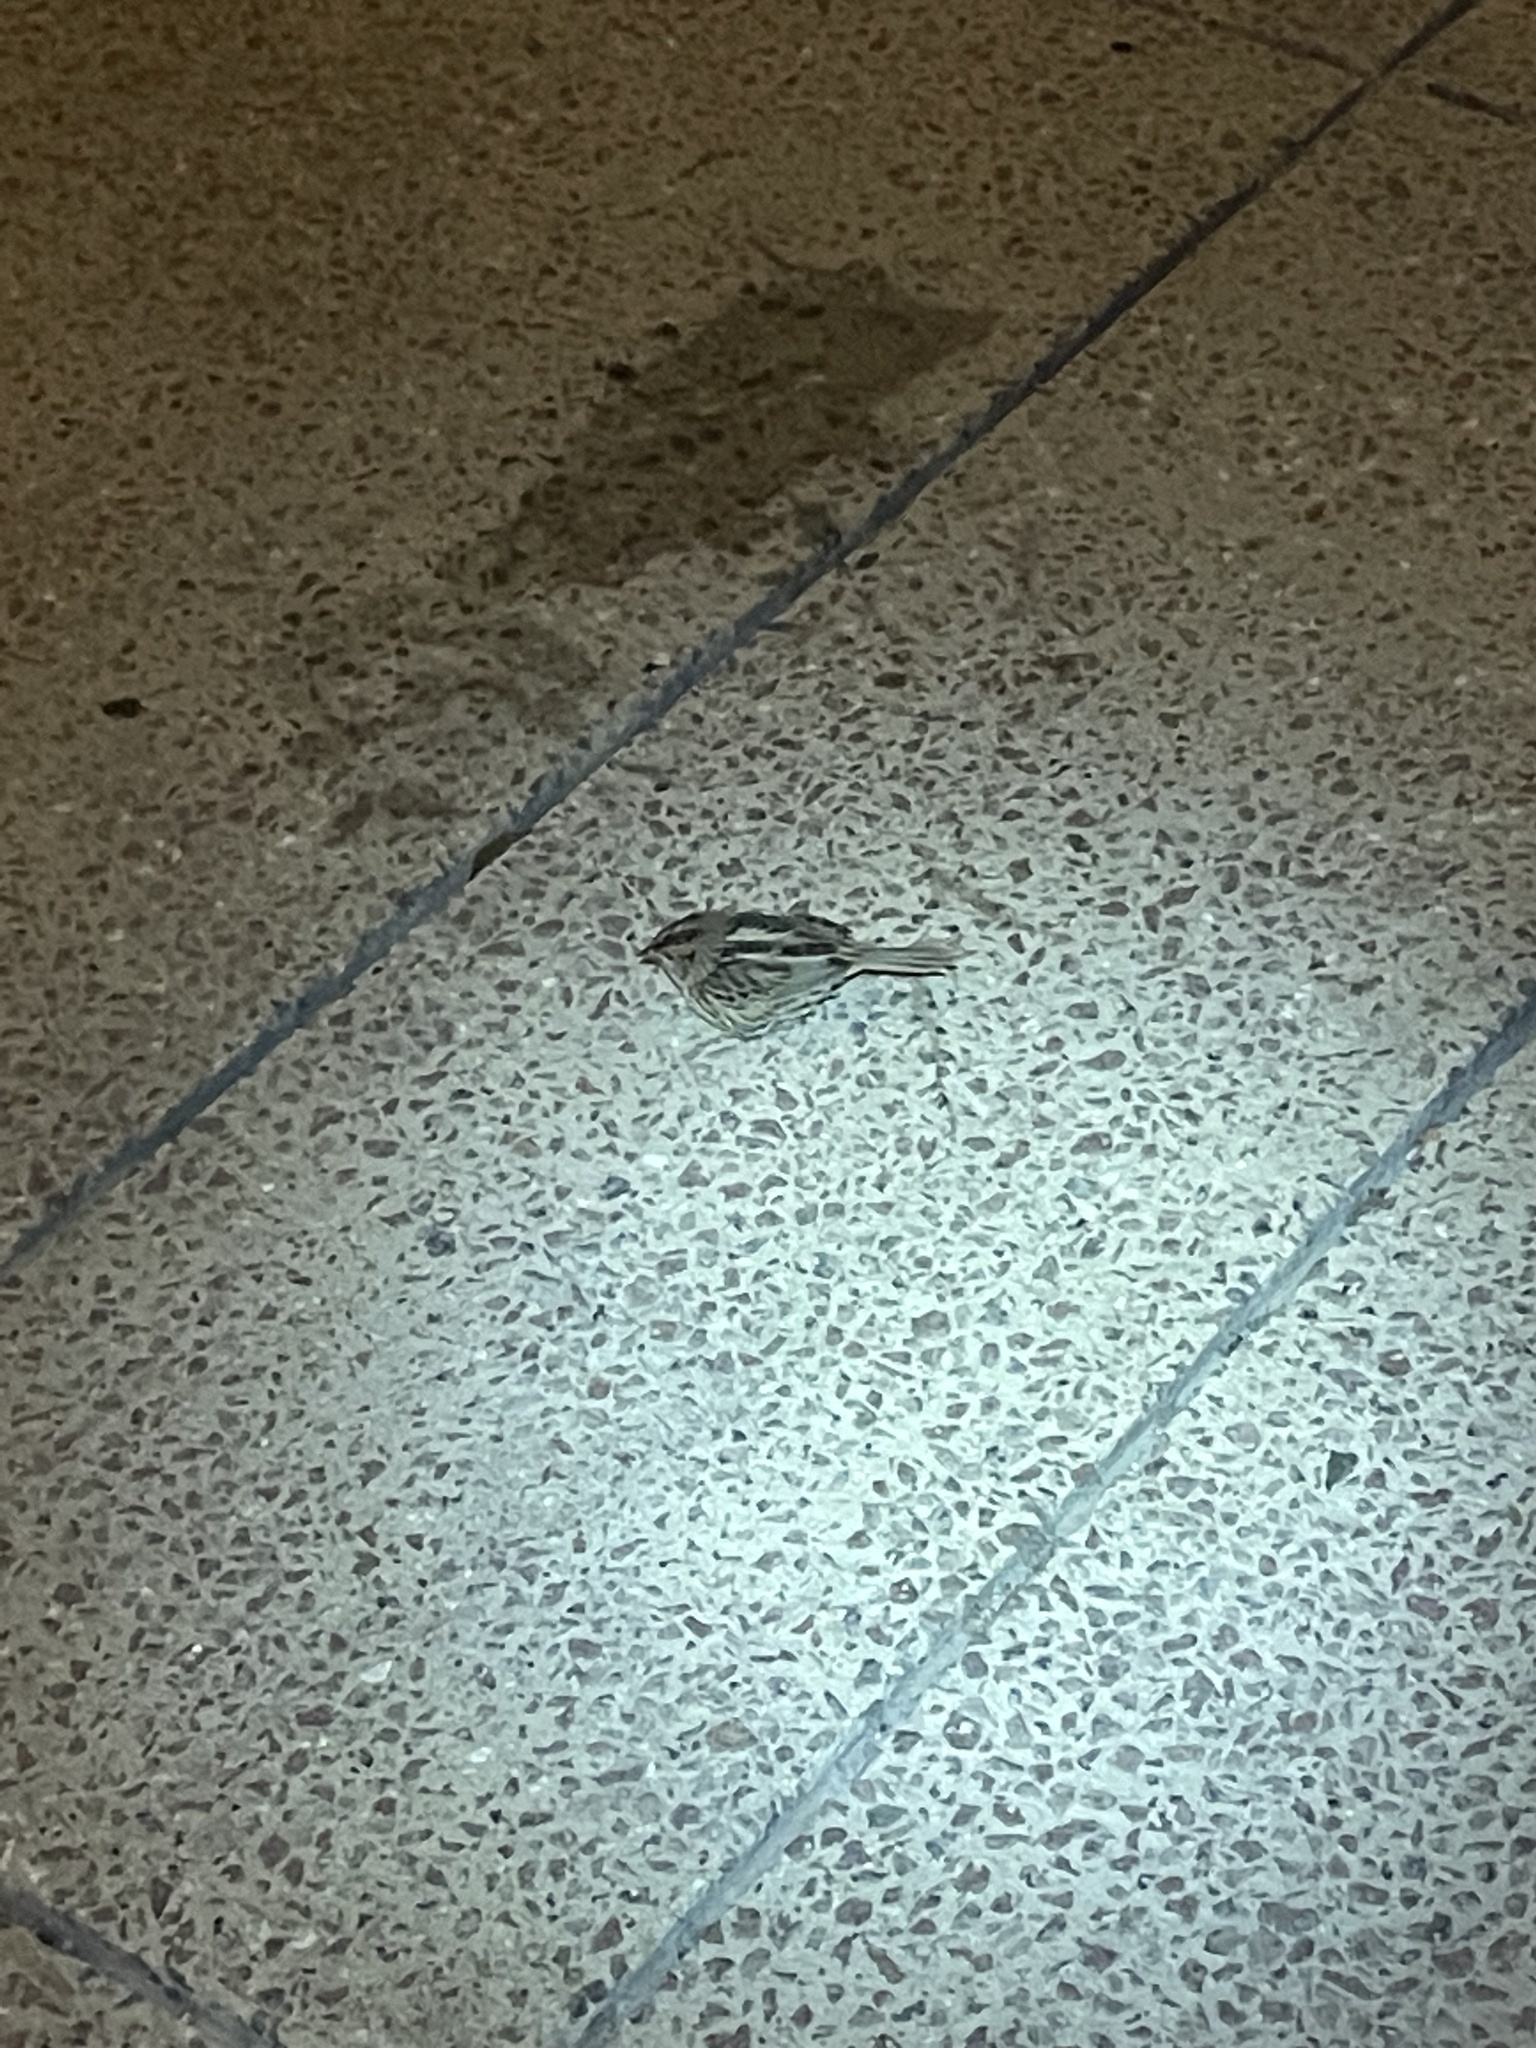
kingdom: Animalia
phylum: Chordata
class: Aves
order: Passeriformes
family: Passerellidae
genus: Ammospiza
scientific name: Ammospiza leconteii
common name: Le conte's sparrow
